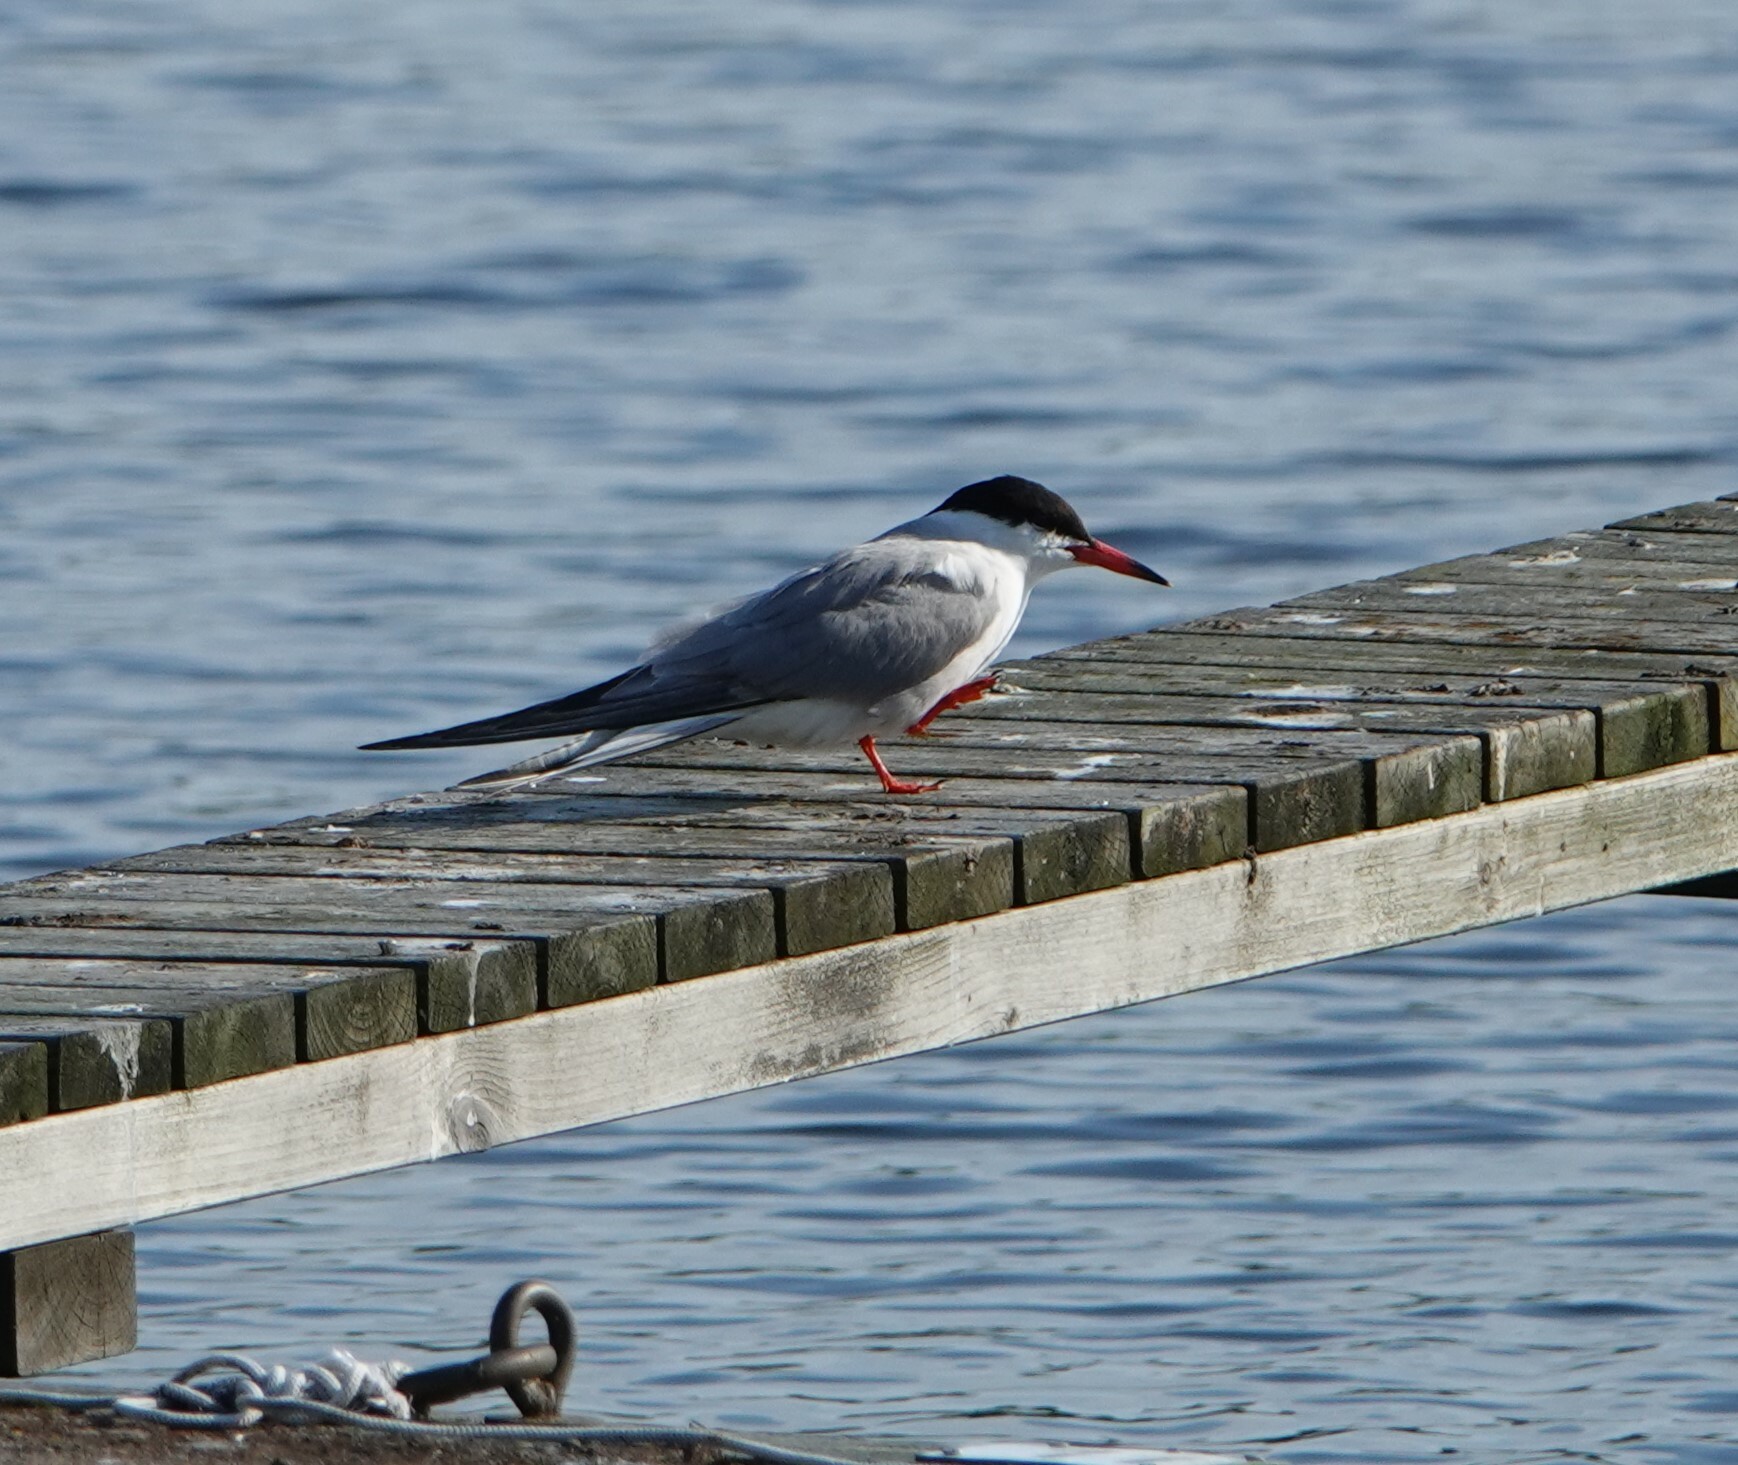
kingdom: Animalia
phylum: Chordata
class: Aves
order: Charadriiformes
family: Laridae
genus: Sterna
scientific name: Sterna hirundo
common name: Common tern
